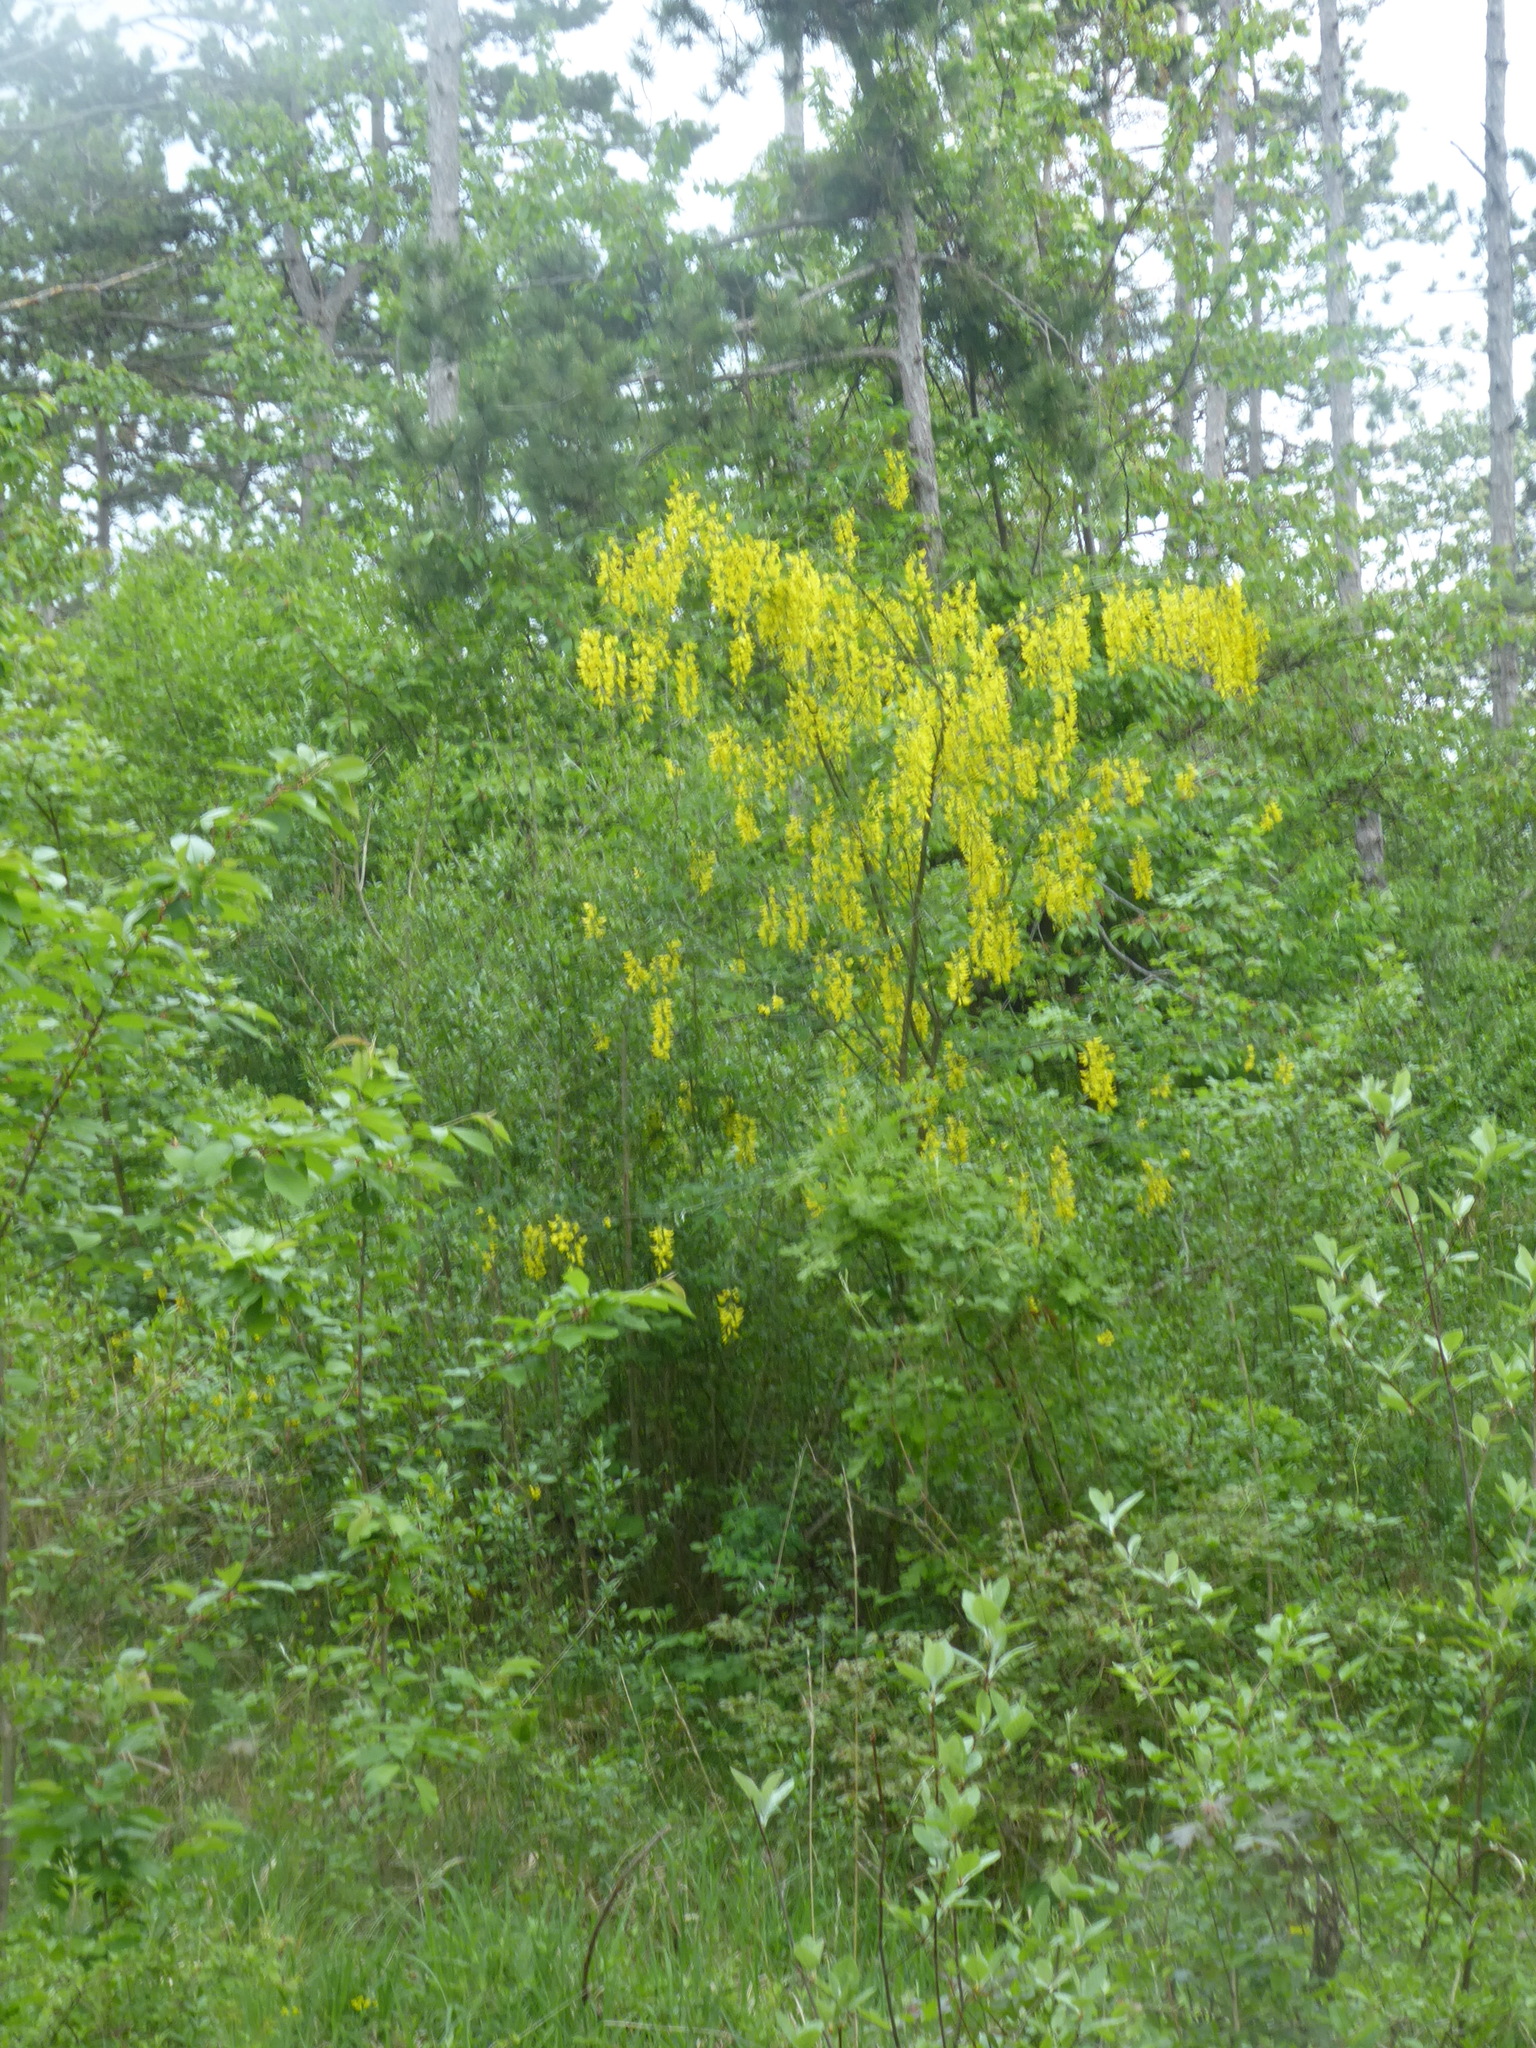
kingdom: Plantae
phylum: Tracheophyta
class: Magnoliopsida
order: Fabales
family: Fabaceae
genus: Laburnum
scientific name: Laburnum anagyroides
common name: Laburnum
